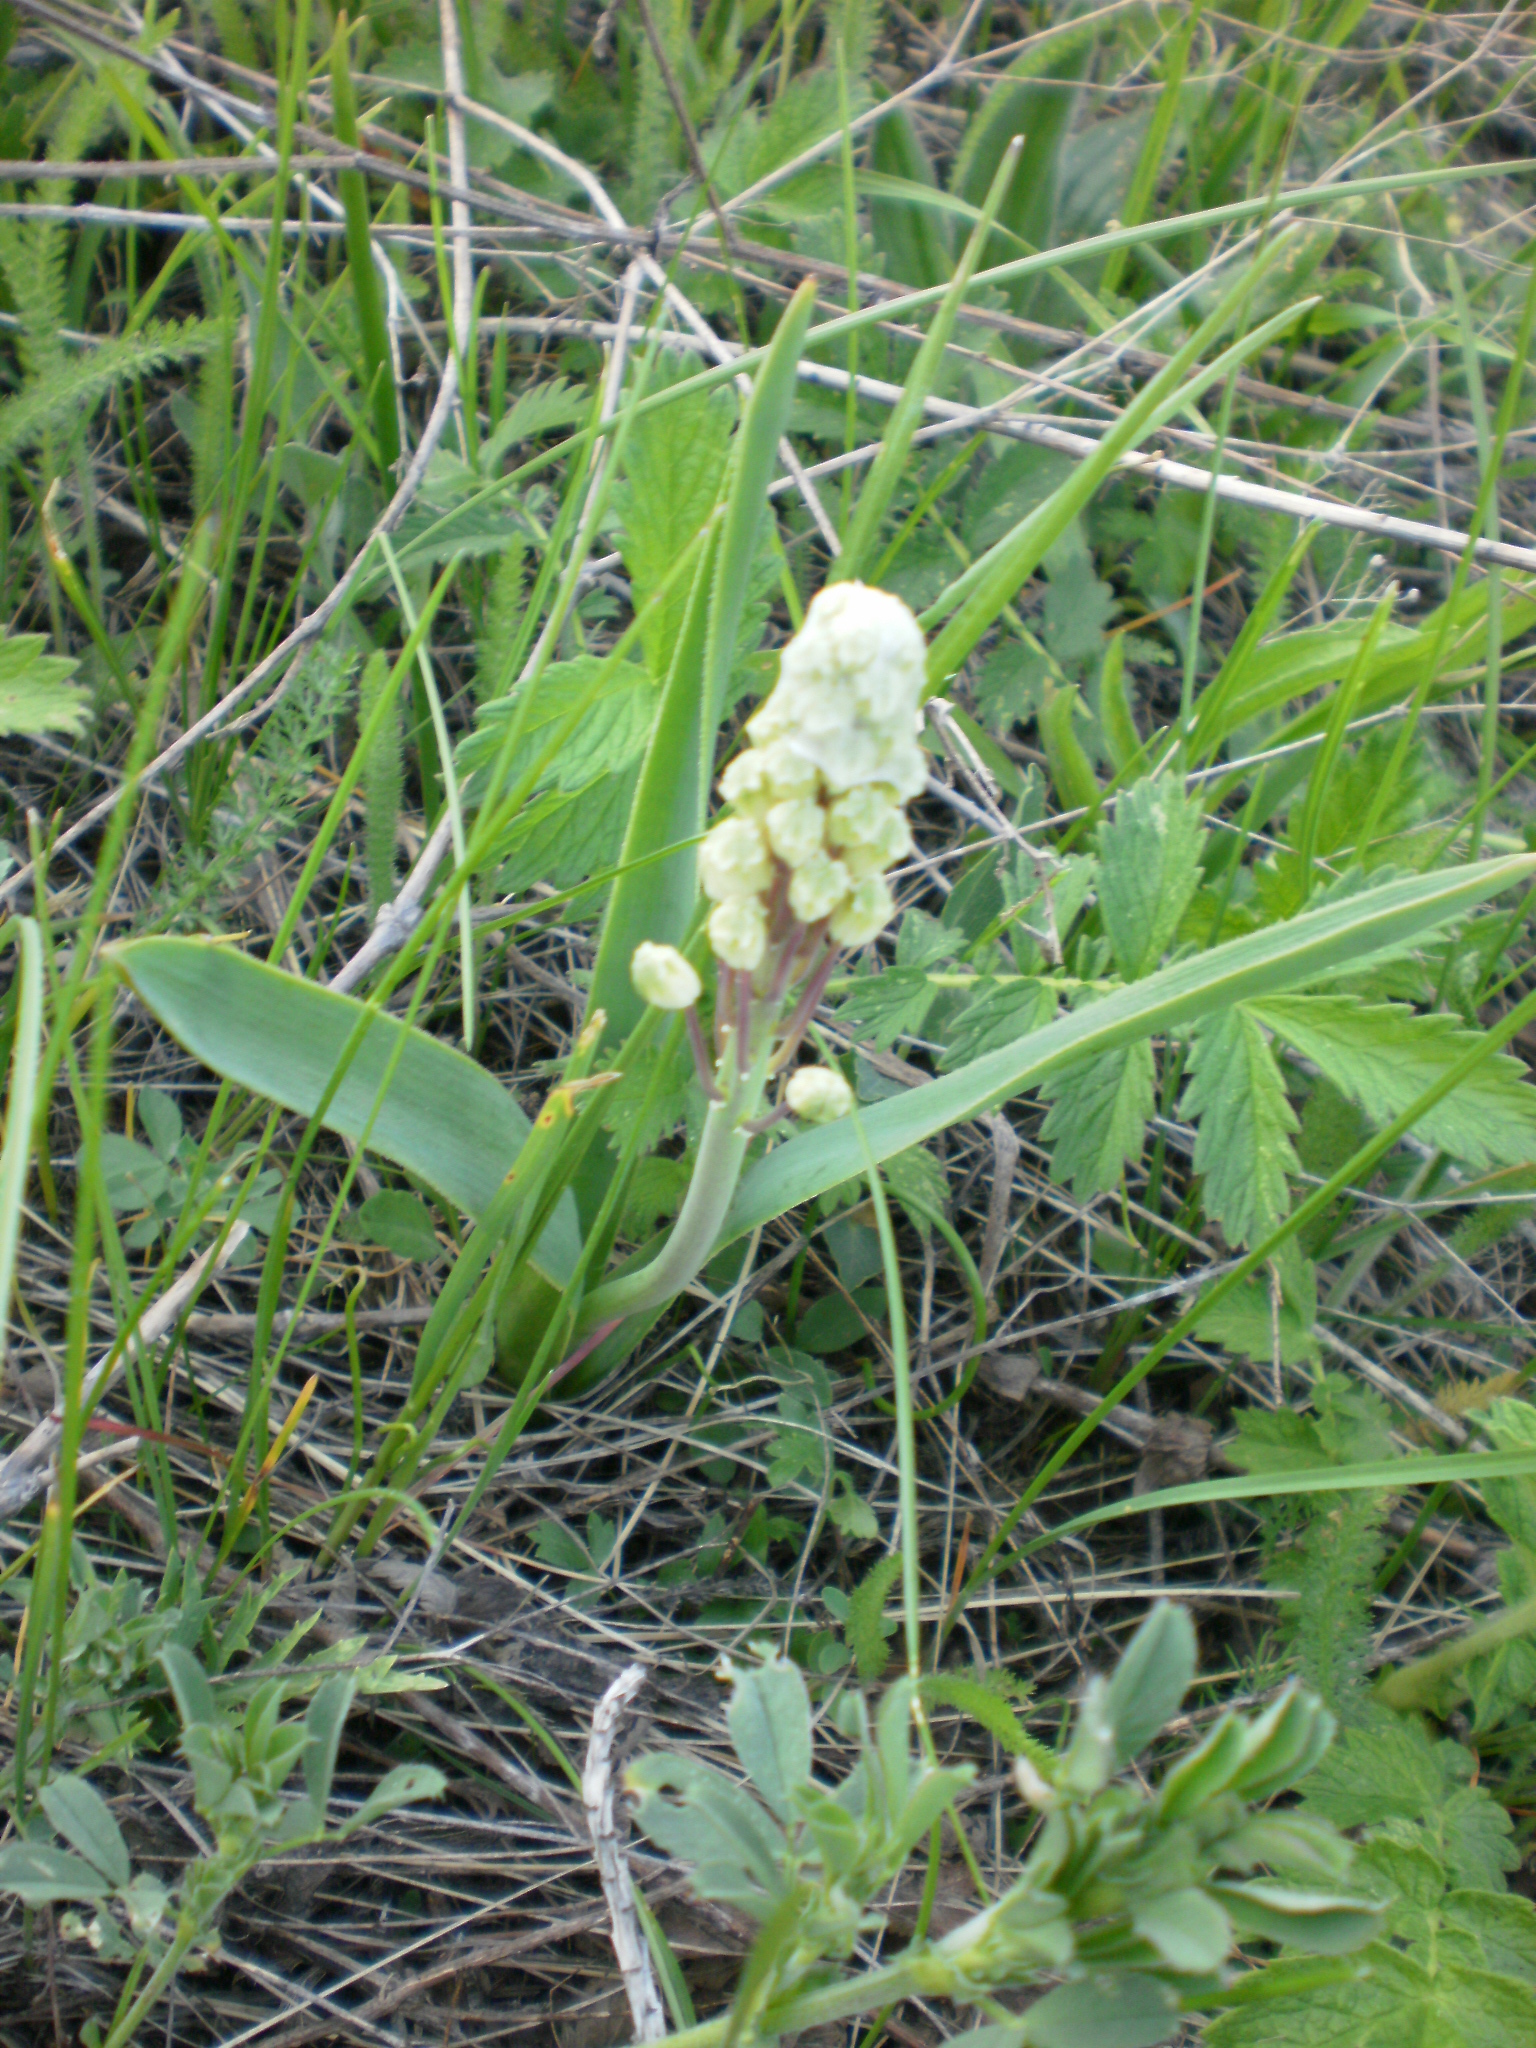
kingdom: Plantae
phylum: Tracheophyta
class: Liliopsida
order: Asparagales
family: Asparagaceae
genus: Bellevalia
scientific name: Bellevalia speciosa
